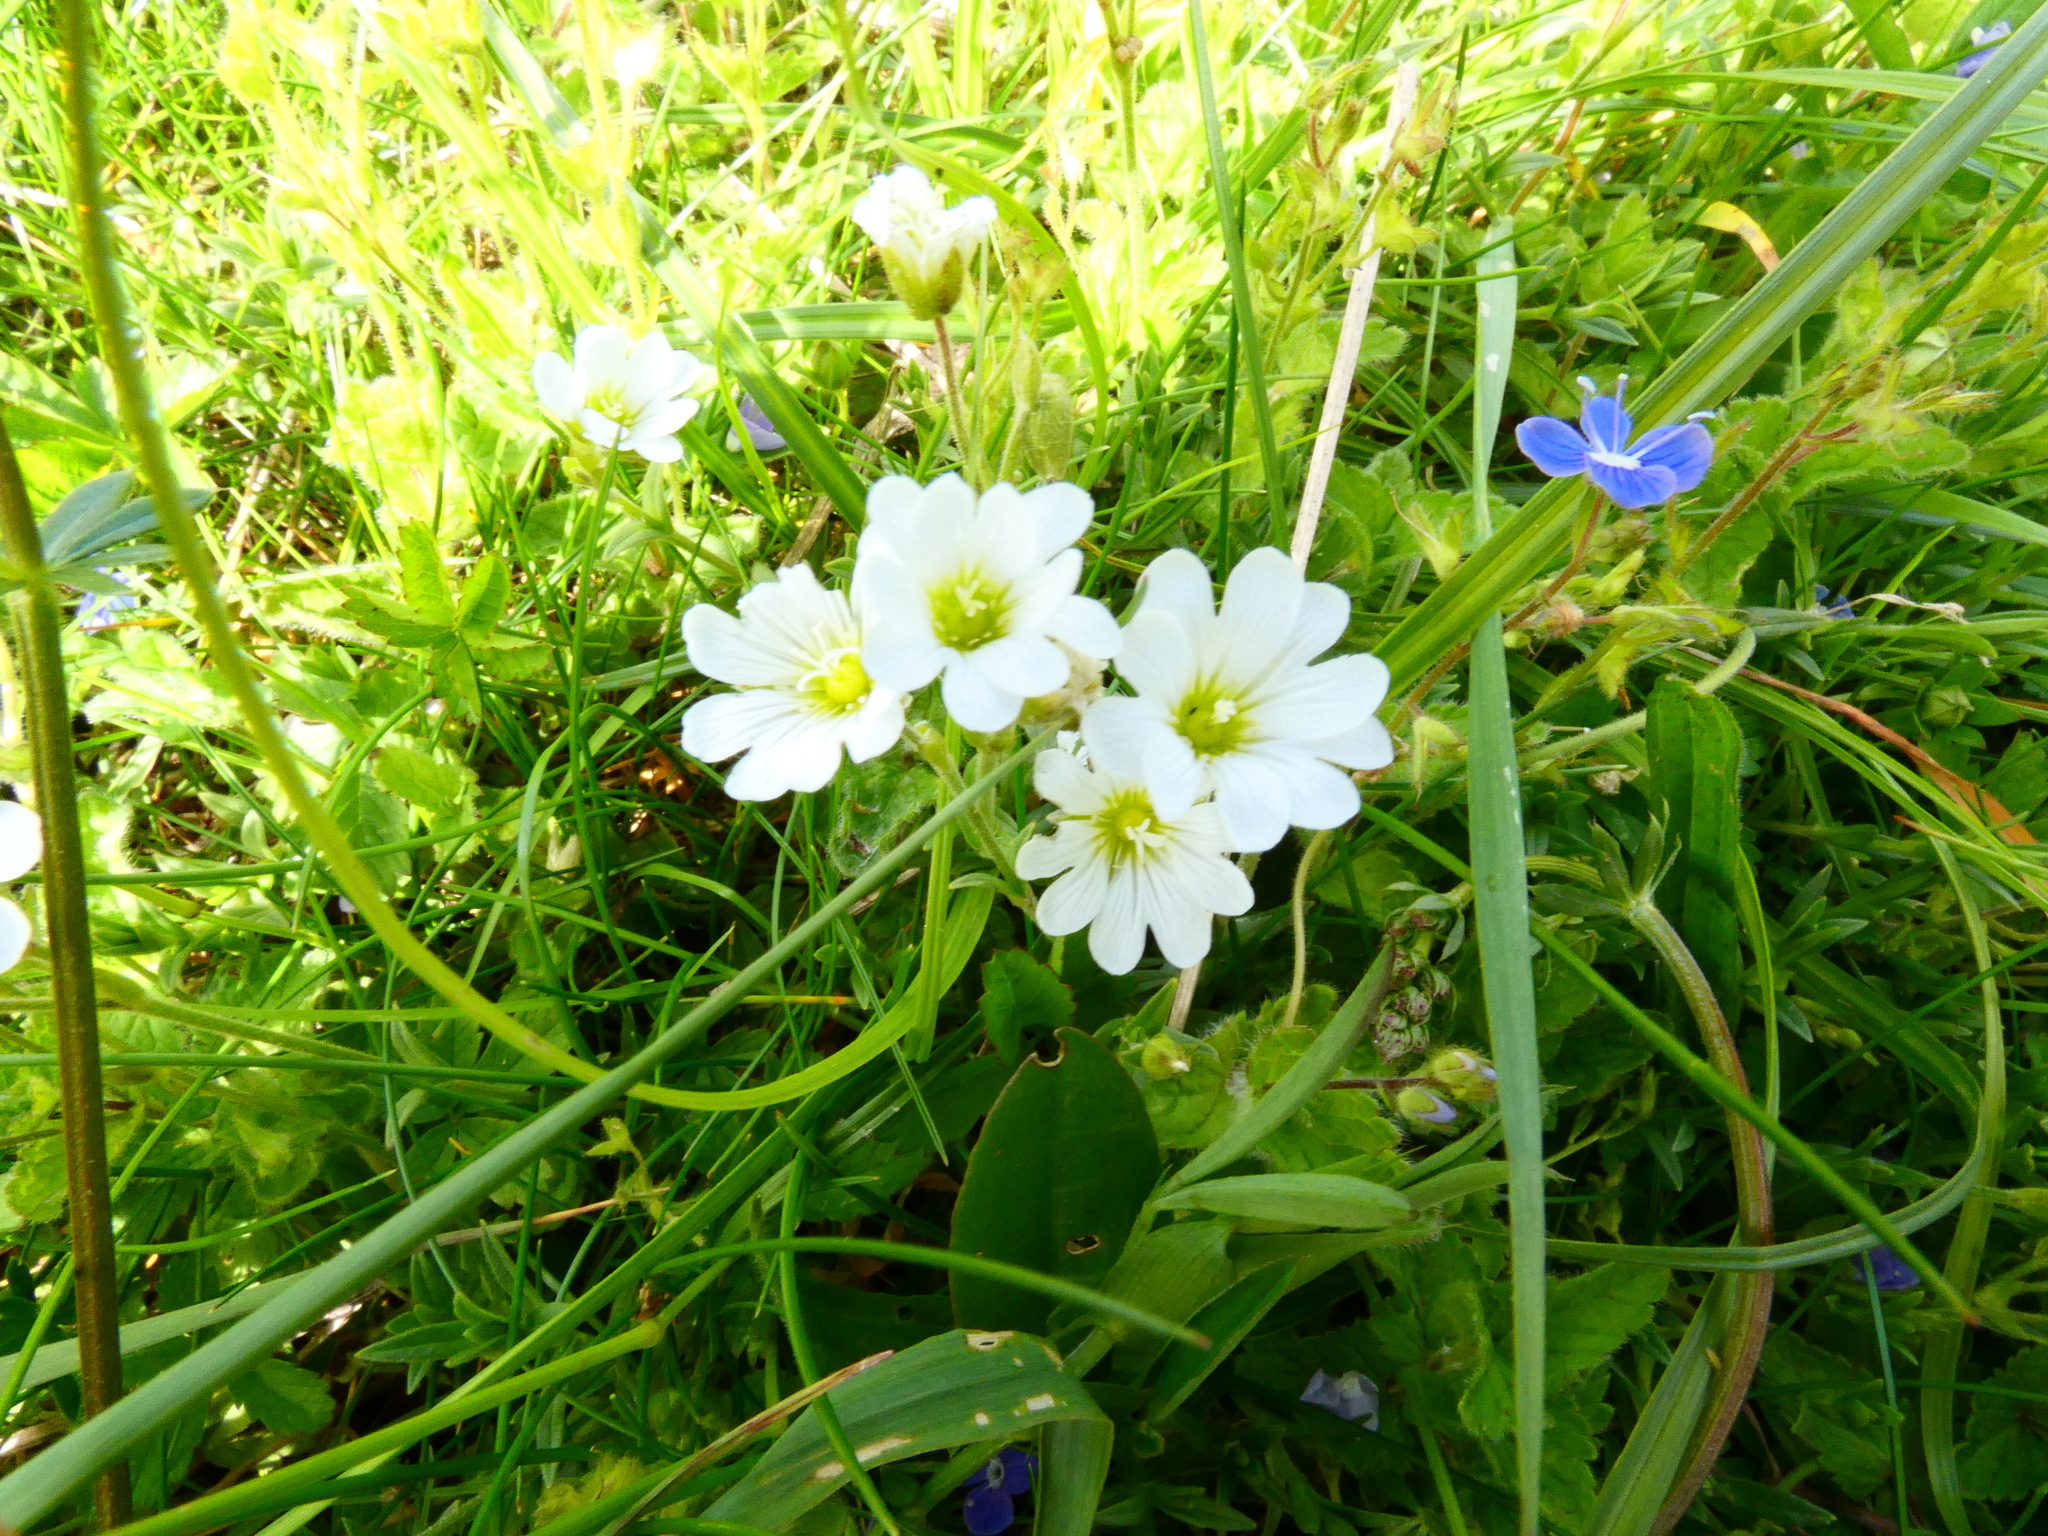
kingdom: Plantae
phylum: Tracheophyta
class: Magnoliopsida
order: Caryophyllales
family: Caryophyllaceae
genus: Cerastium
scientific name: Cerastium arvense
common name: Field mouse-ear
